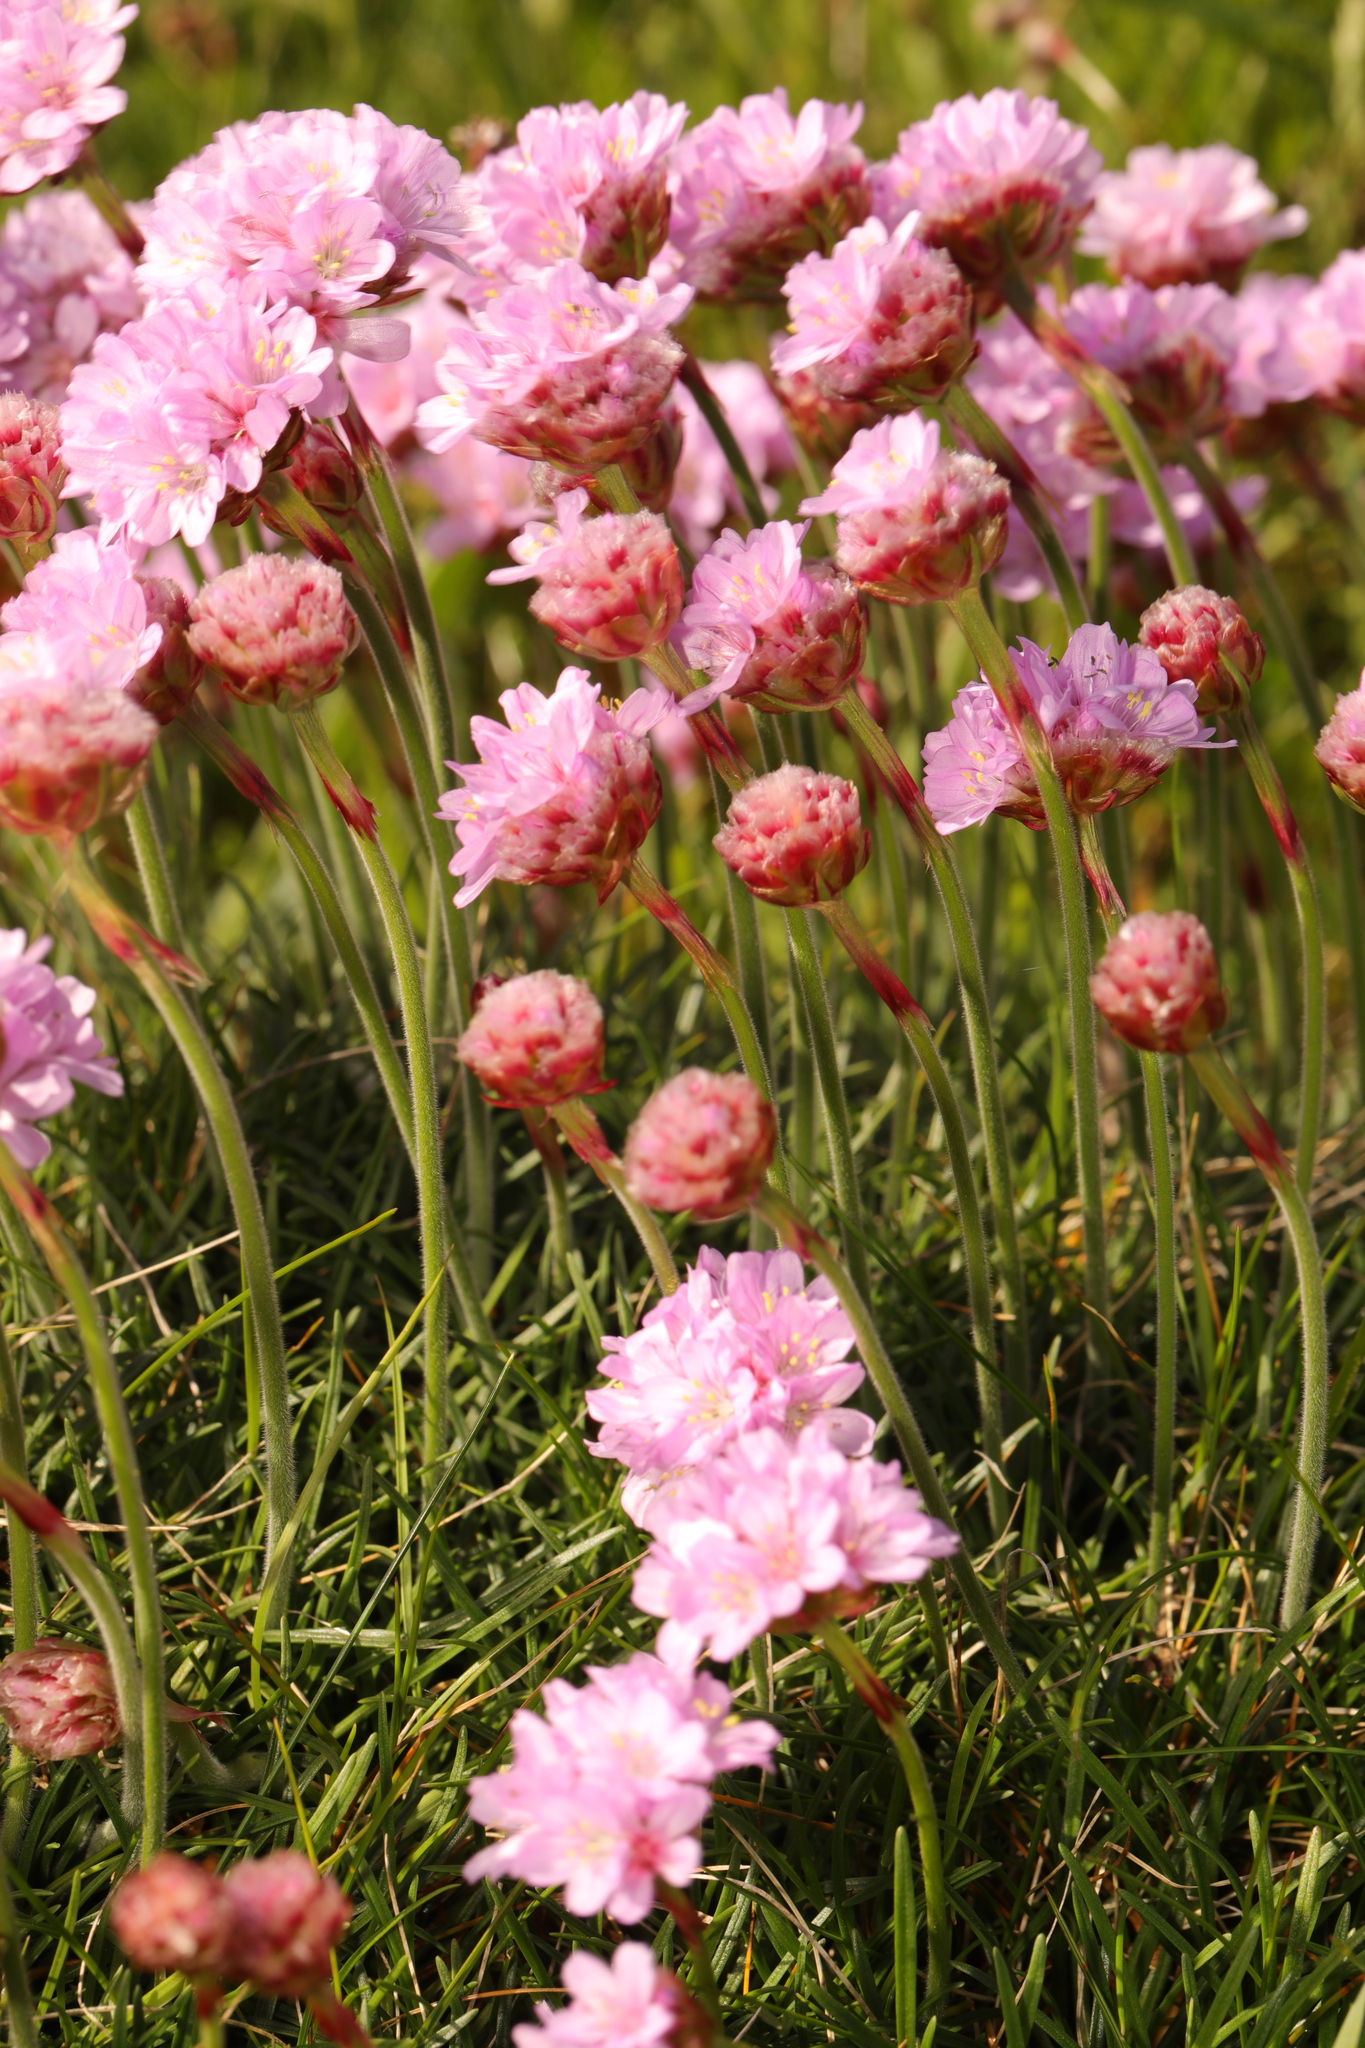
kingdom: Plantae
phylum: Tracheophyta
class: Magnoliopsida
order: Caryophyllales
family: Plumbaginaceae
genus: Armeria
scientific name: Armeria maritima
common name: Thrift
